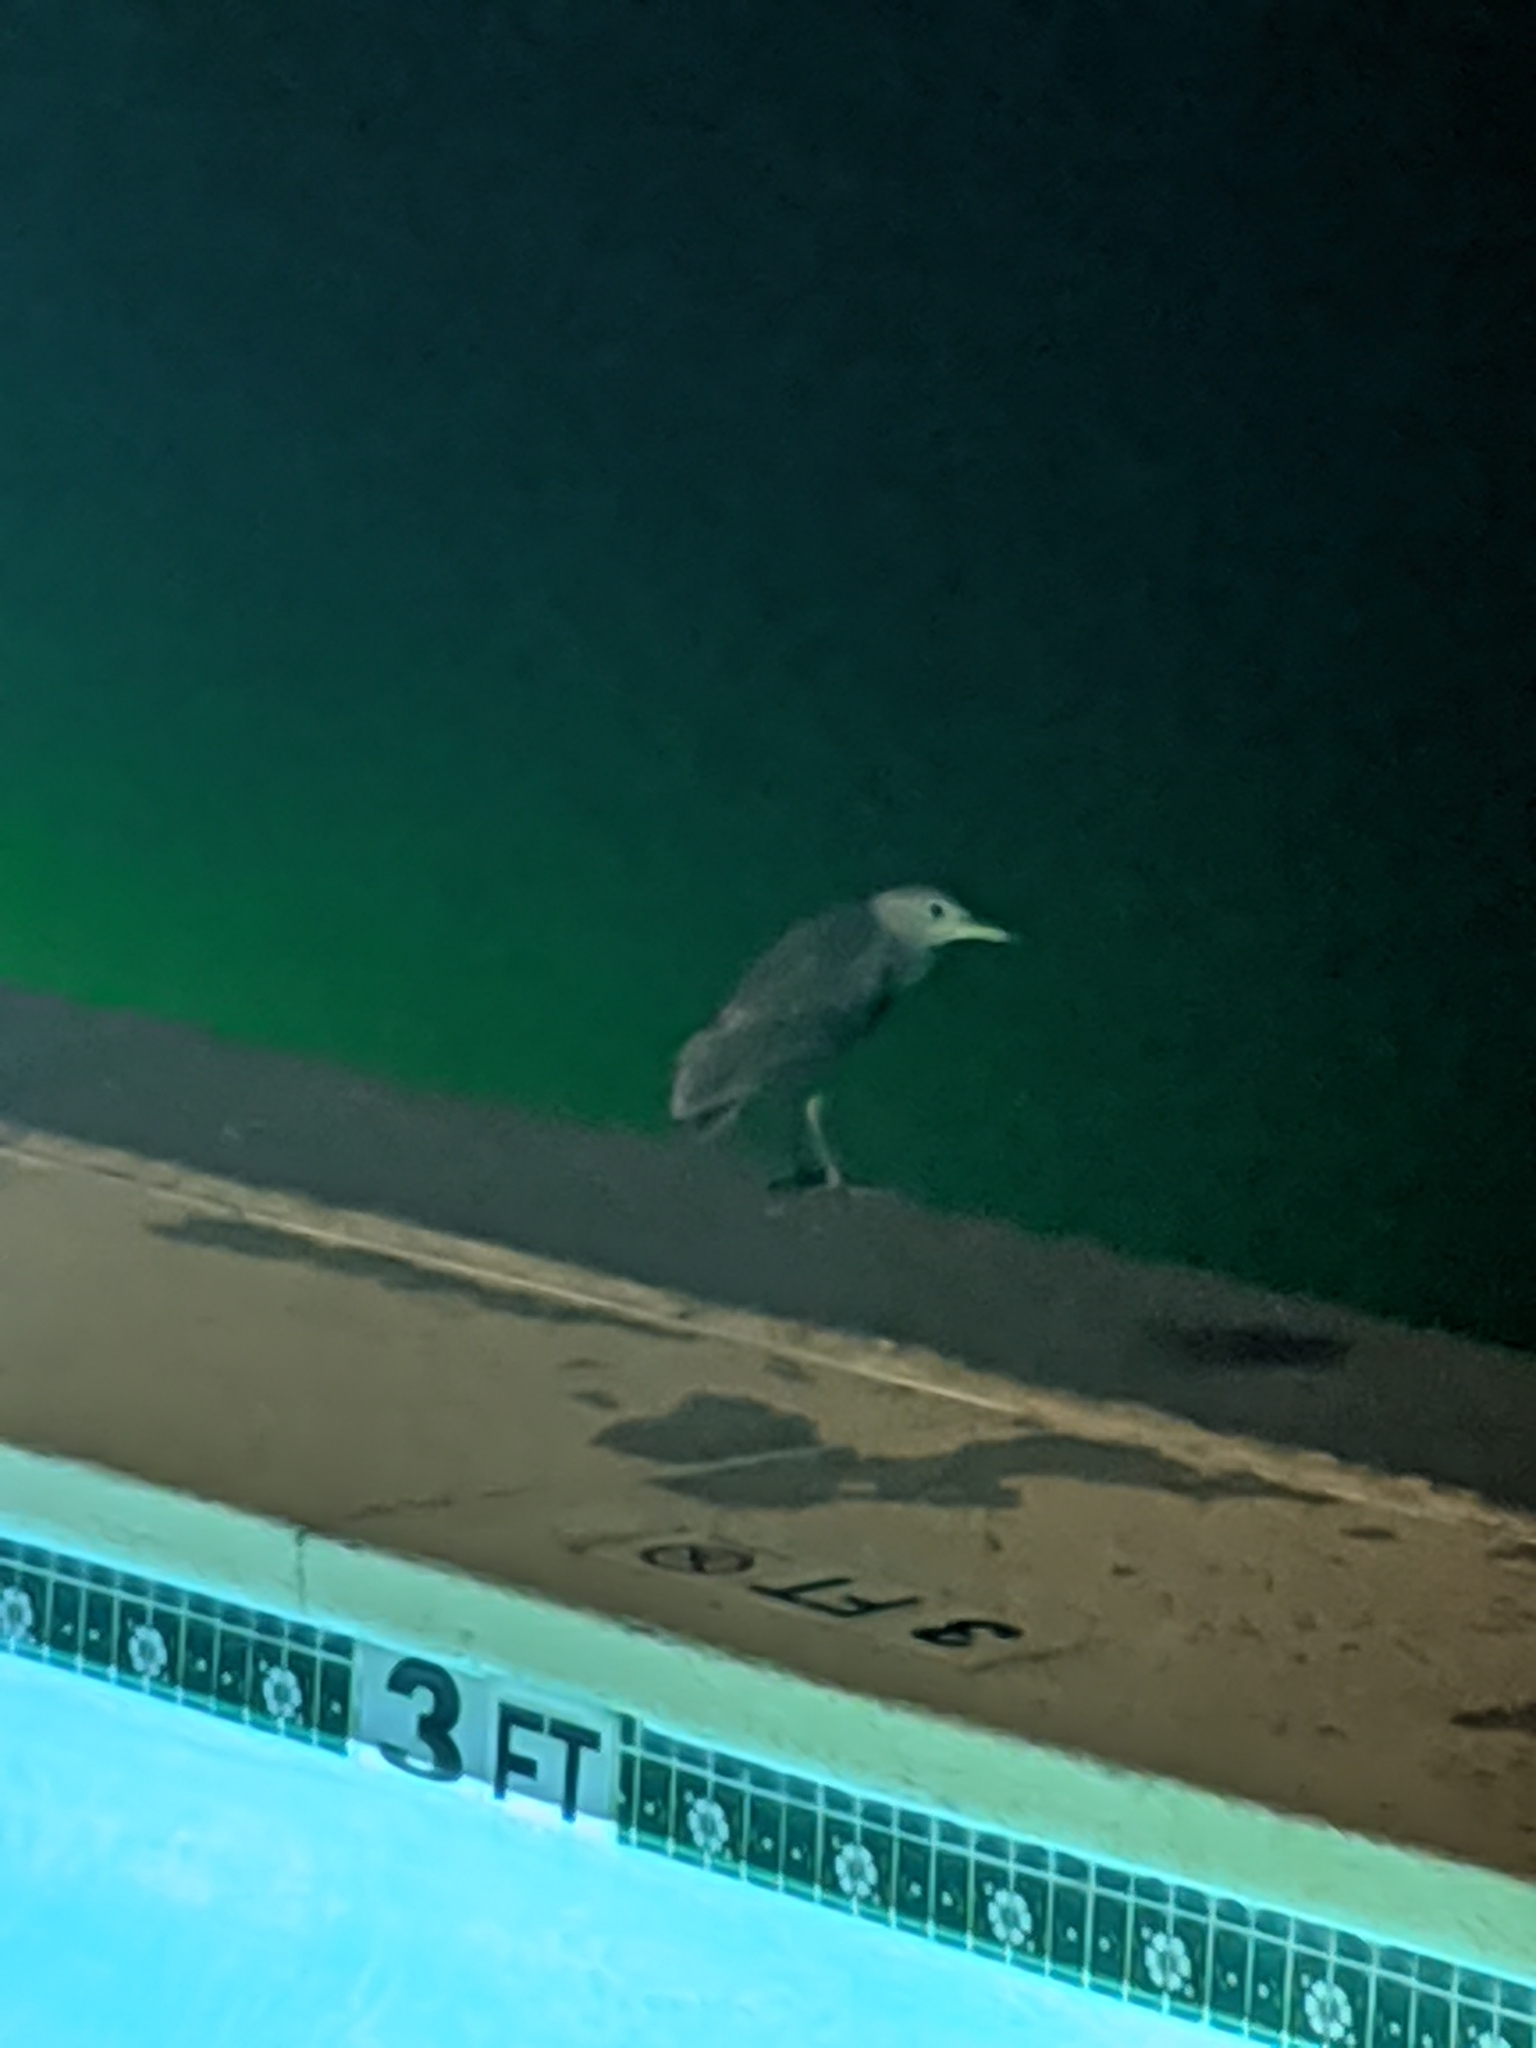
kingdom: Animalia
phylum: Chordata
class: Aves
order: Pelecaniformes
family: Ardeidae
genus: Nycticorax
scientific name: Nycticorax nycticorax
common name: Black-crowned night heron
